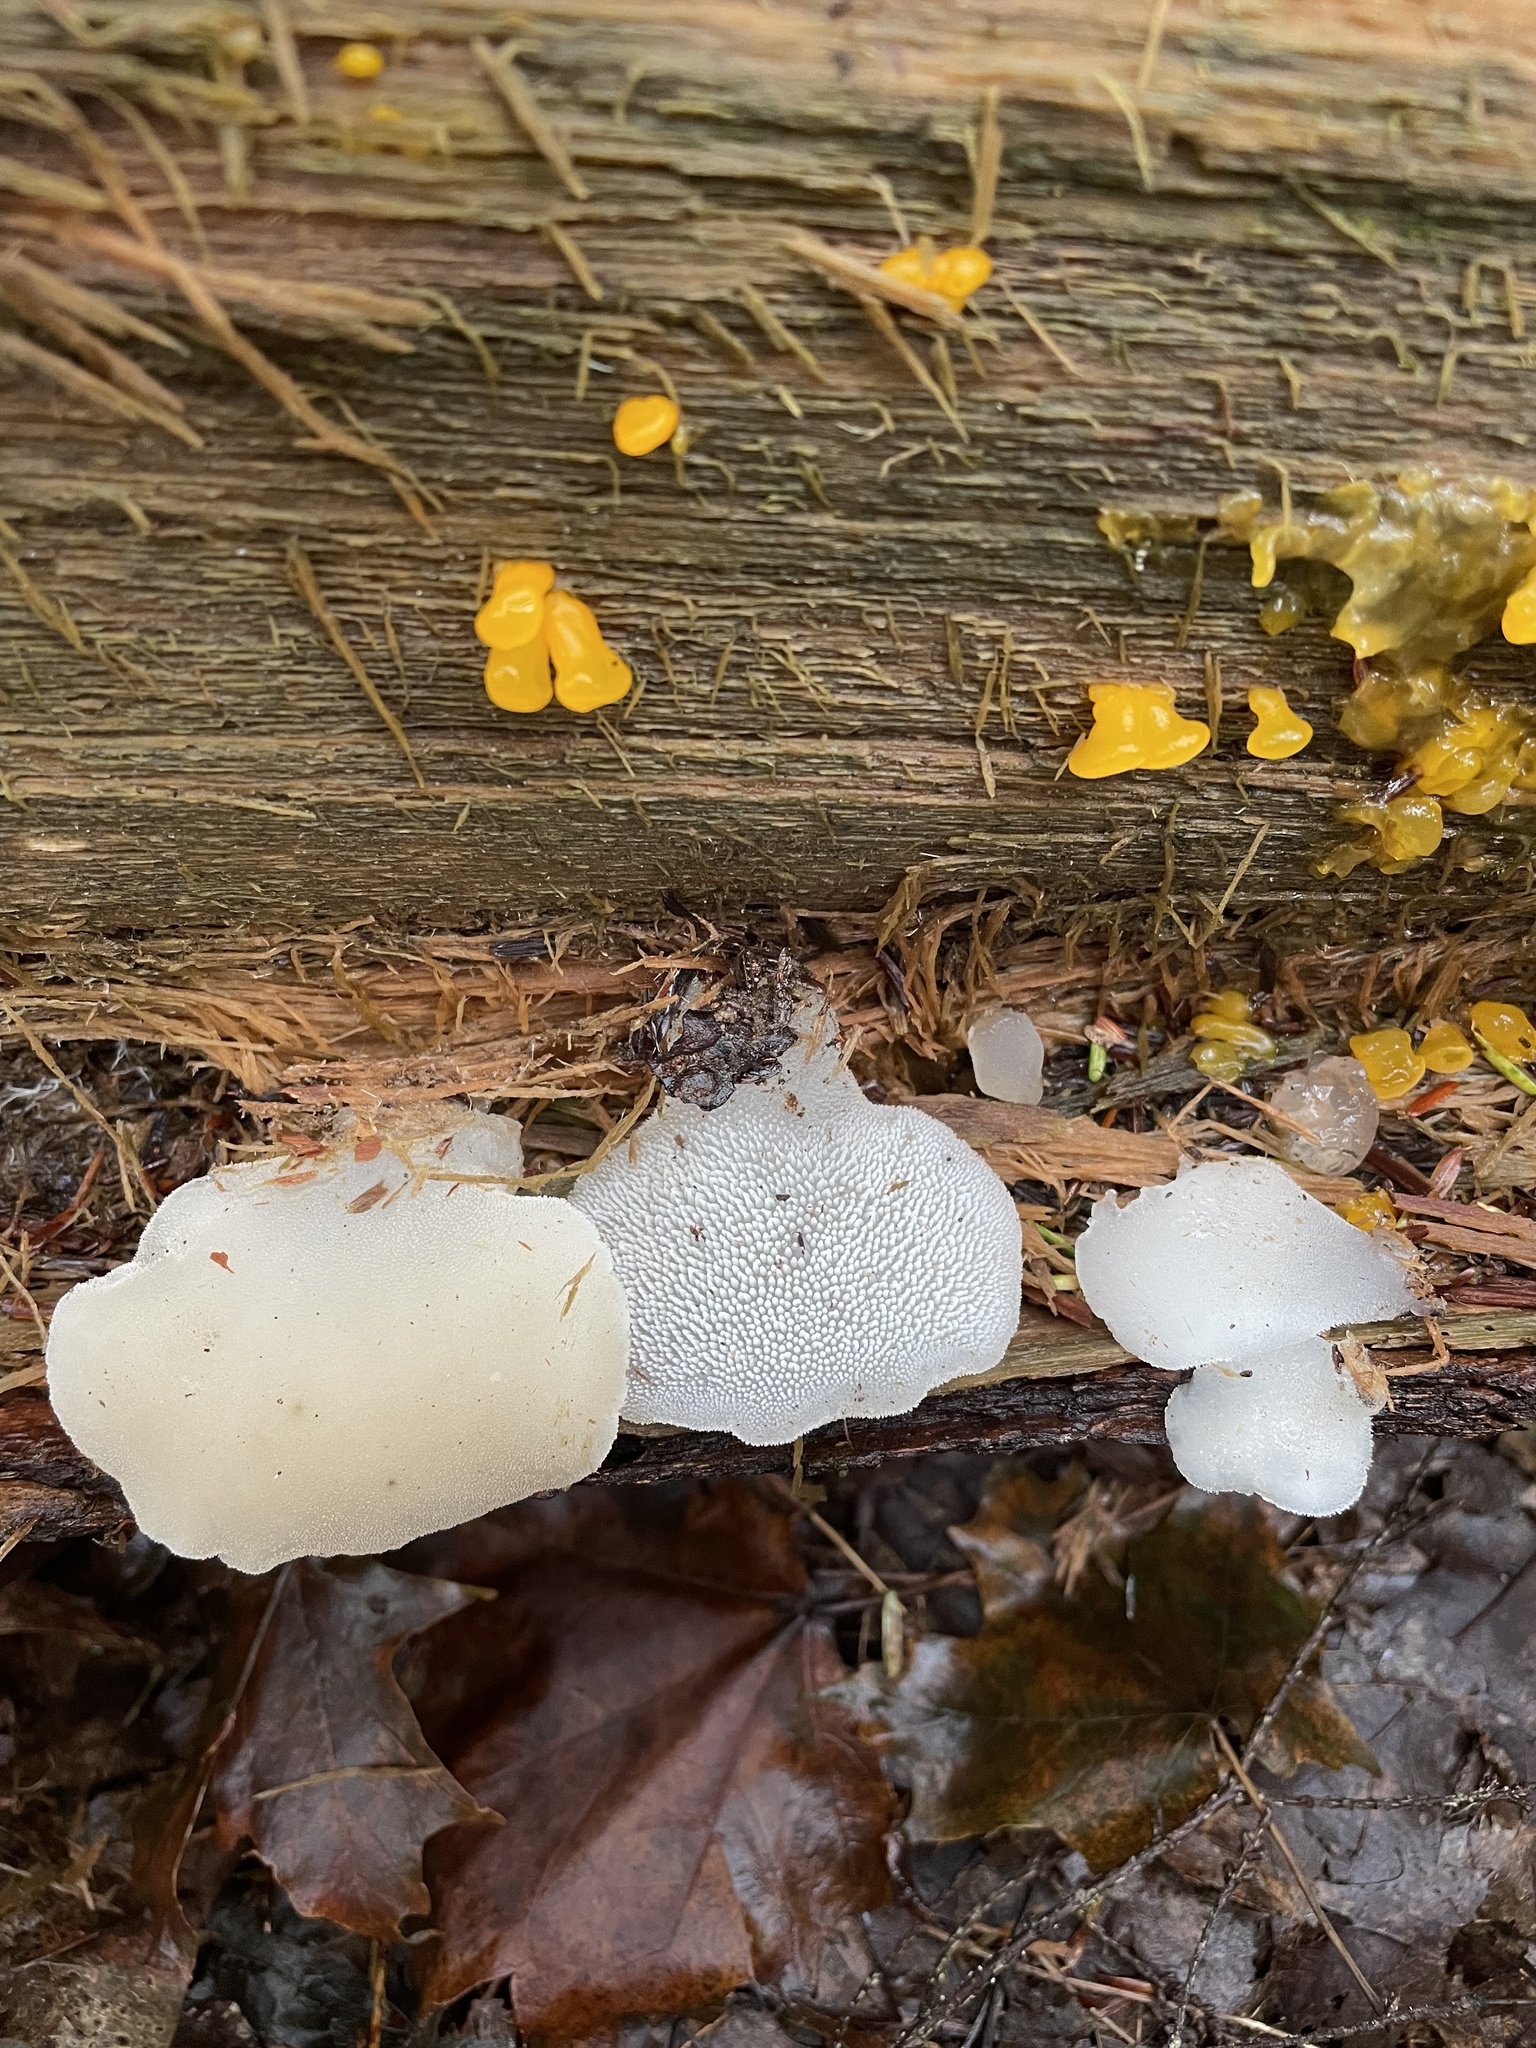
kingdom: Fungi
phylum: Basidiomycota
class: Agaricomycetes
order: Auriculariales
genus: Pseudohydnum
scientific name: Pseudohydnum gelatinosum
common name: Jelly tongue
